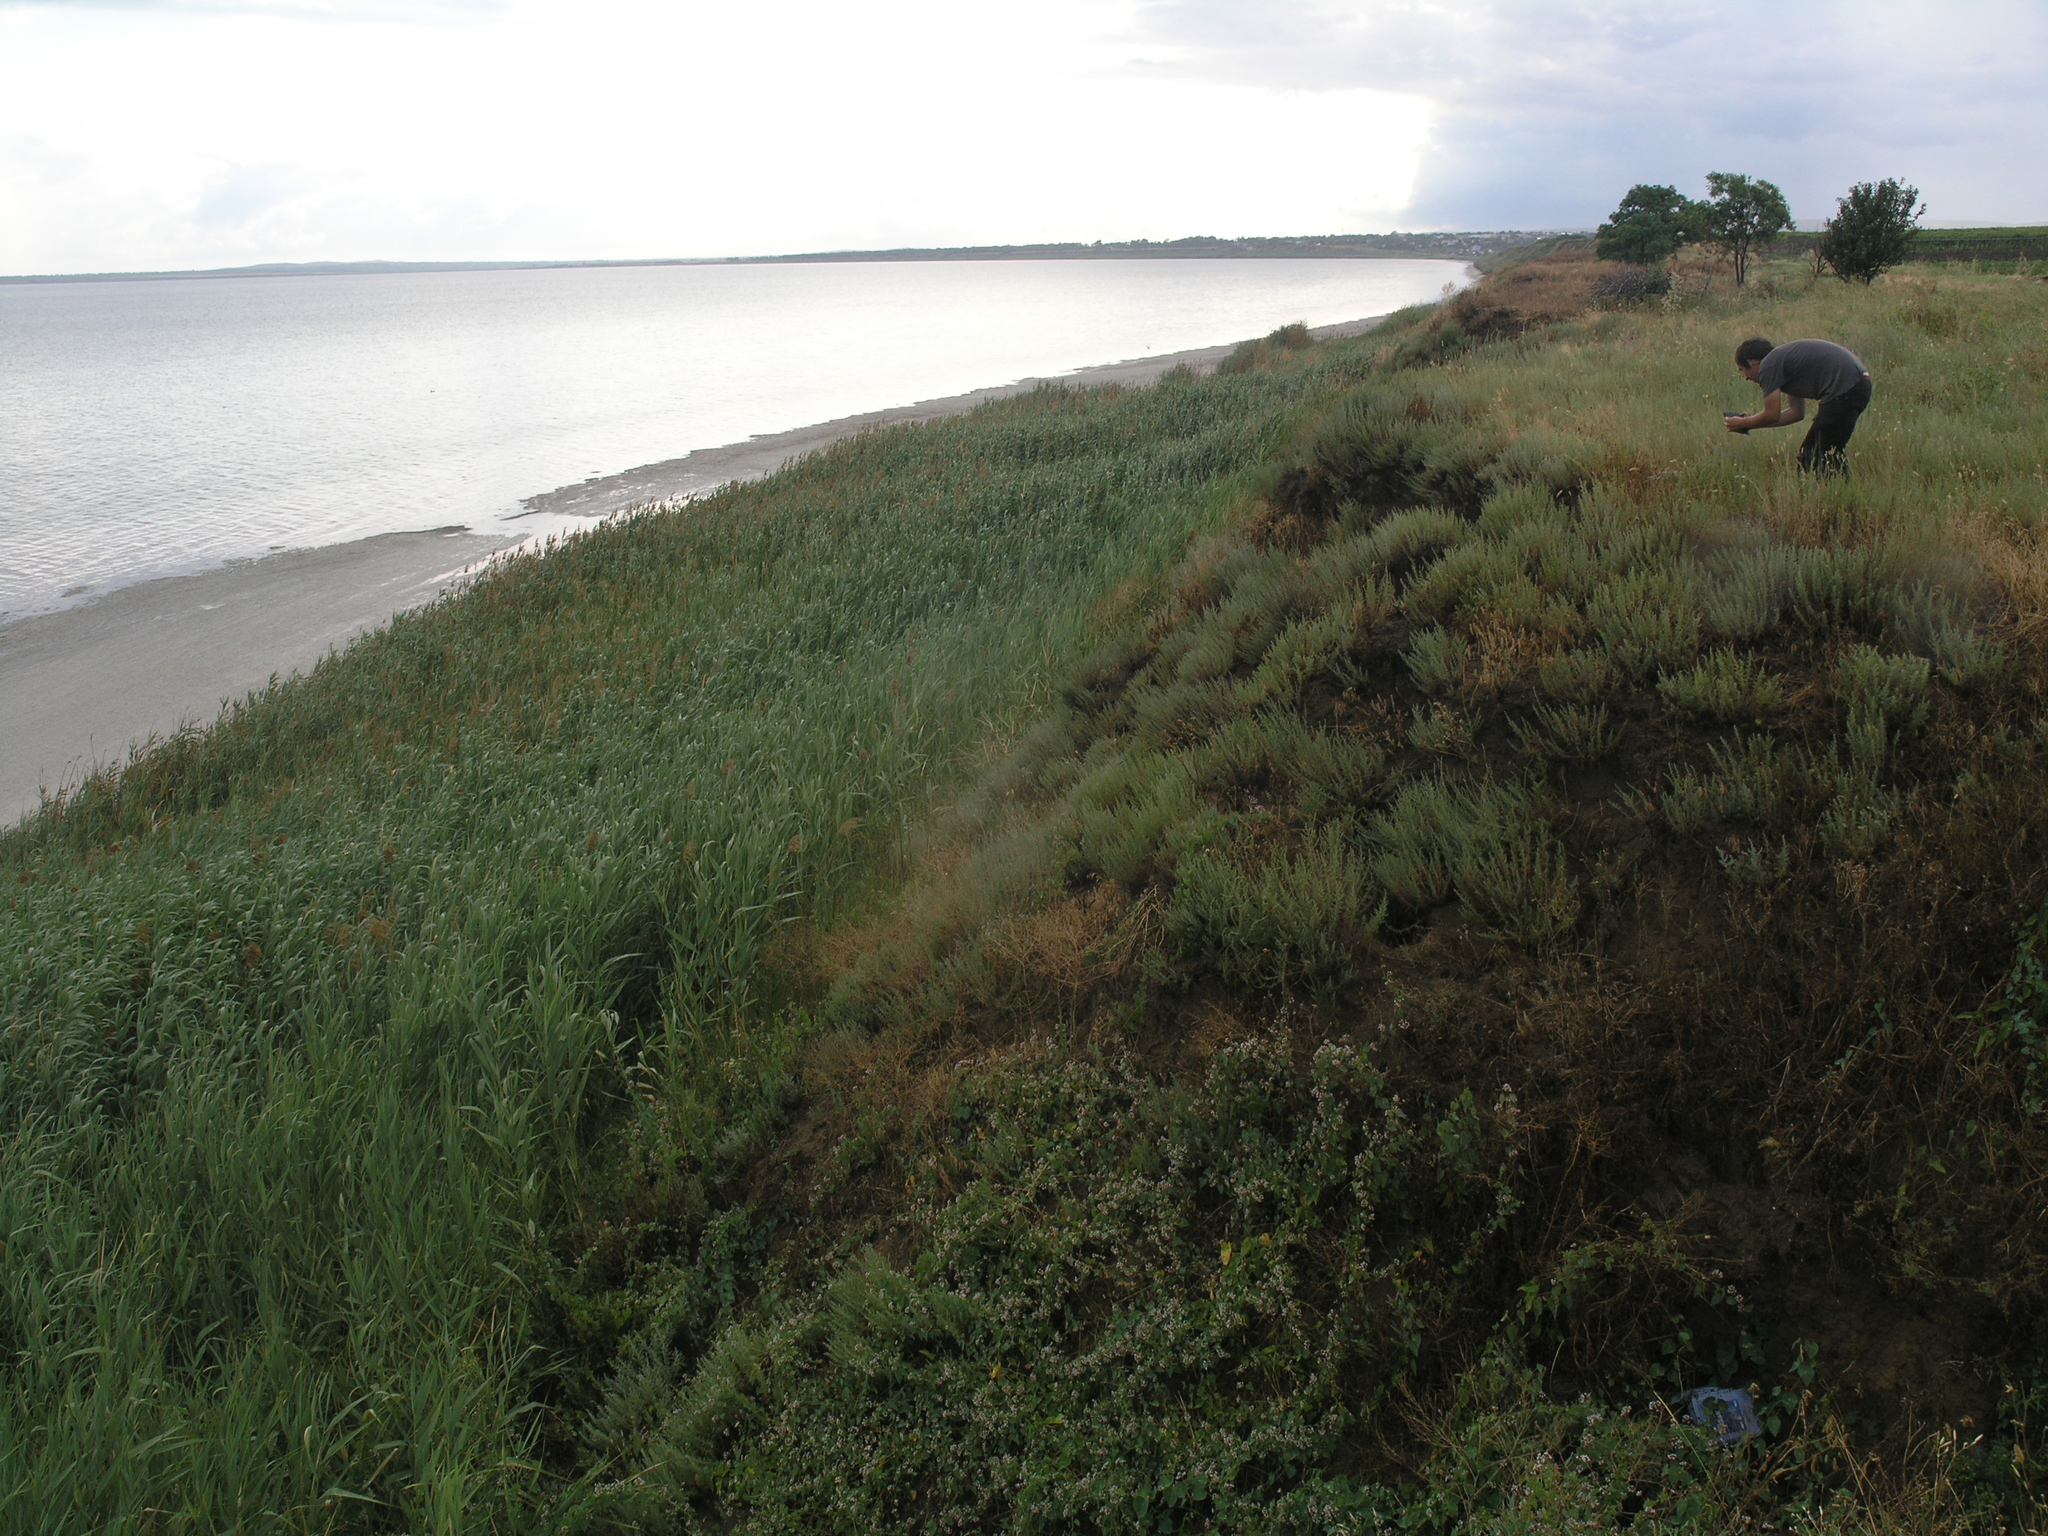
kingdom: Plantae
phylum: Tracheophyta
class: Liliopsida
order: Poales
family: Poaceae
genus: Phragmites
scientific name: Phragmites australis
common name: Common reed
